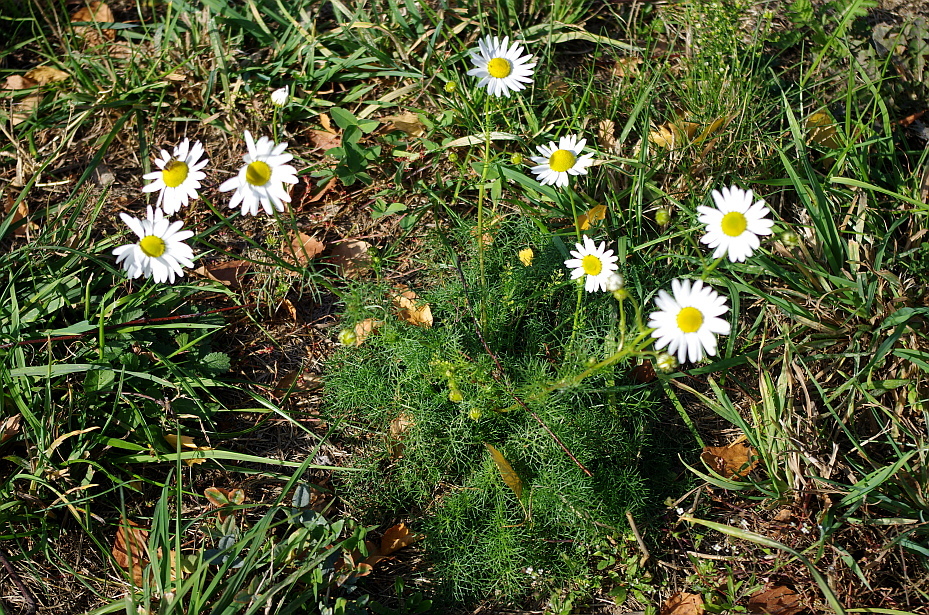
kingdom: Plantae
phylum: Tracheophyta
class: Magnoliopsida
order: Asterales
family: Asteraceae
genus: Tripleurospermum
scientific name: Tripleurospermum inodorum
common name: Scentless mayweed
